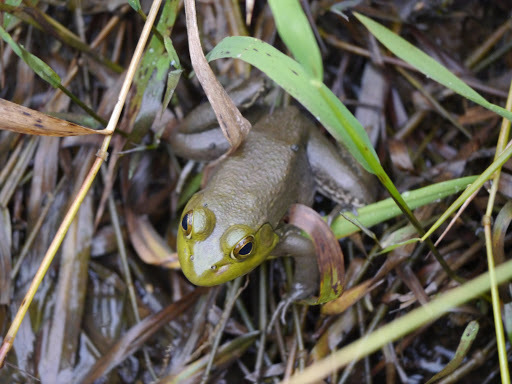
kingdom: Animalia
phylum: Chordata
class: Amphibia
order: Anura
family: Ranidae
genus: Lithobates
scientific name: Lithobates catesbeianus
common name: American bullfrog
